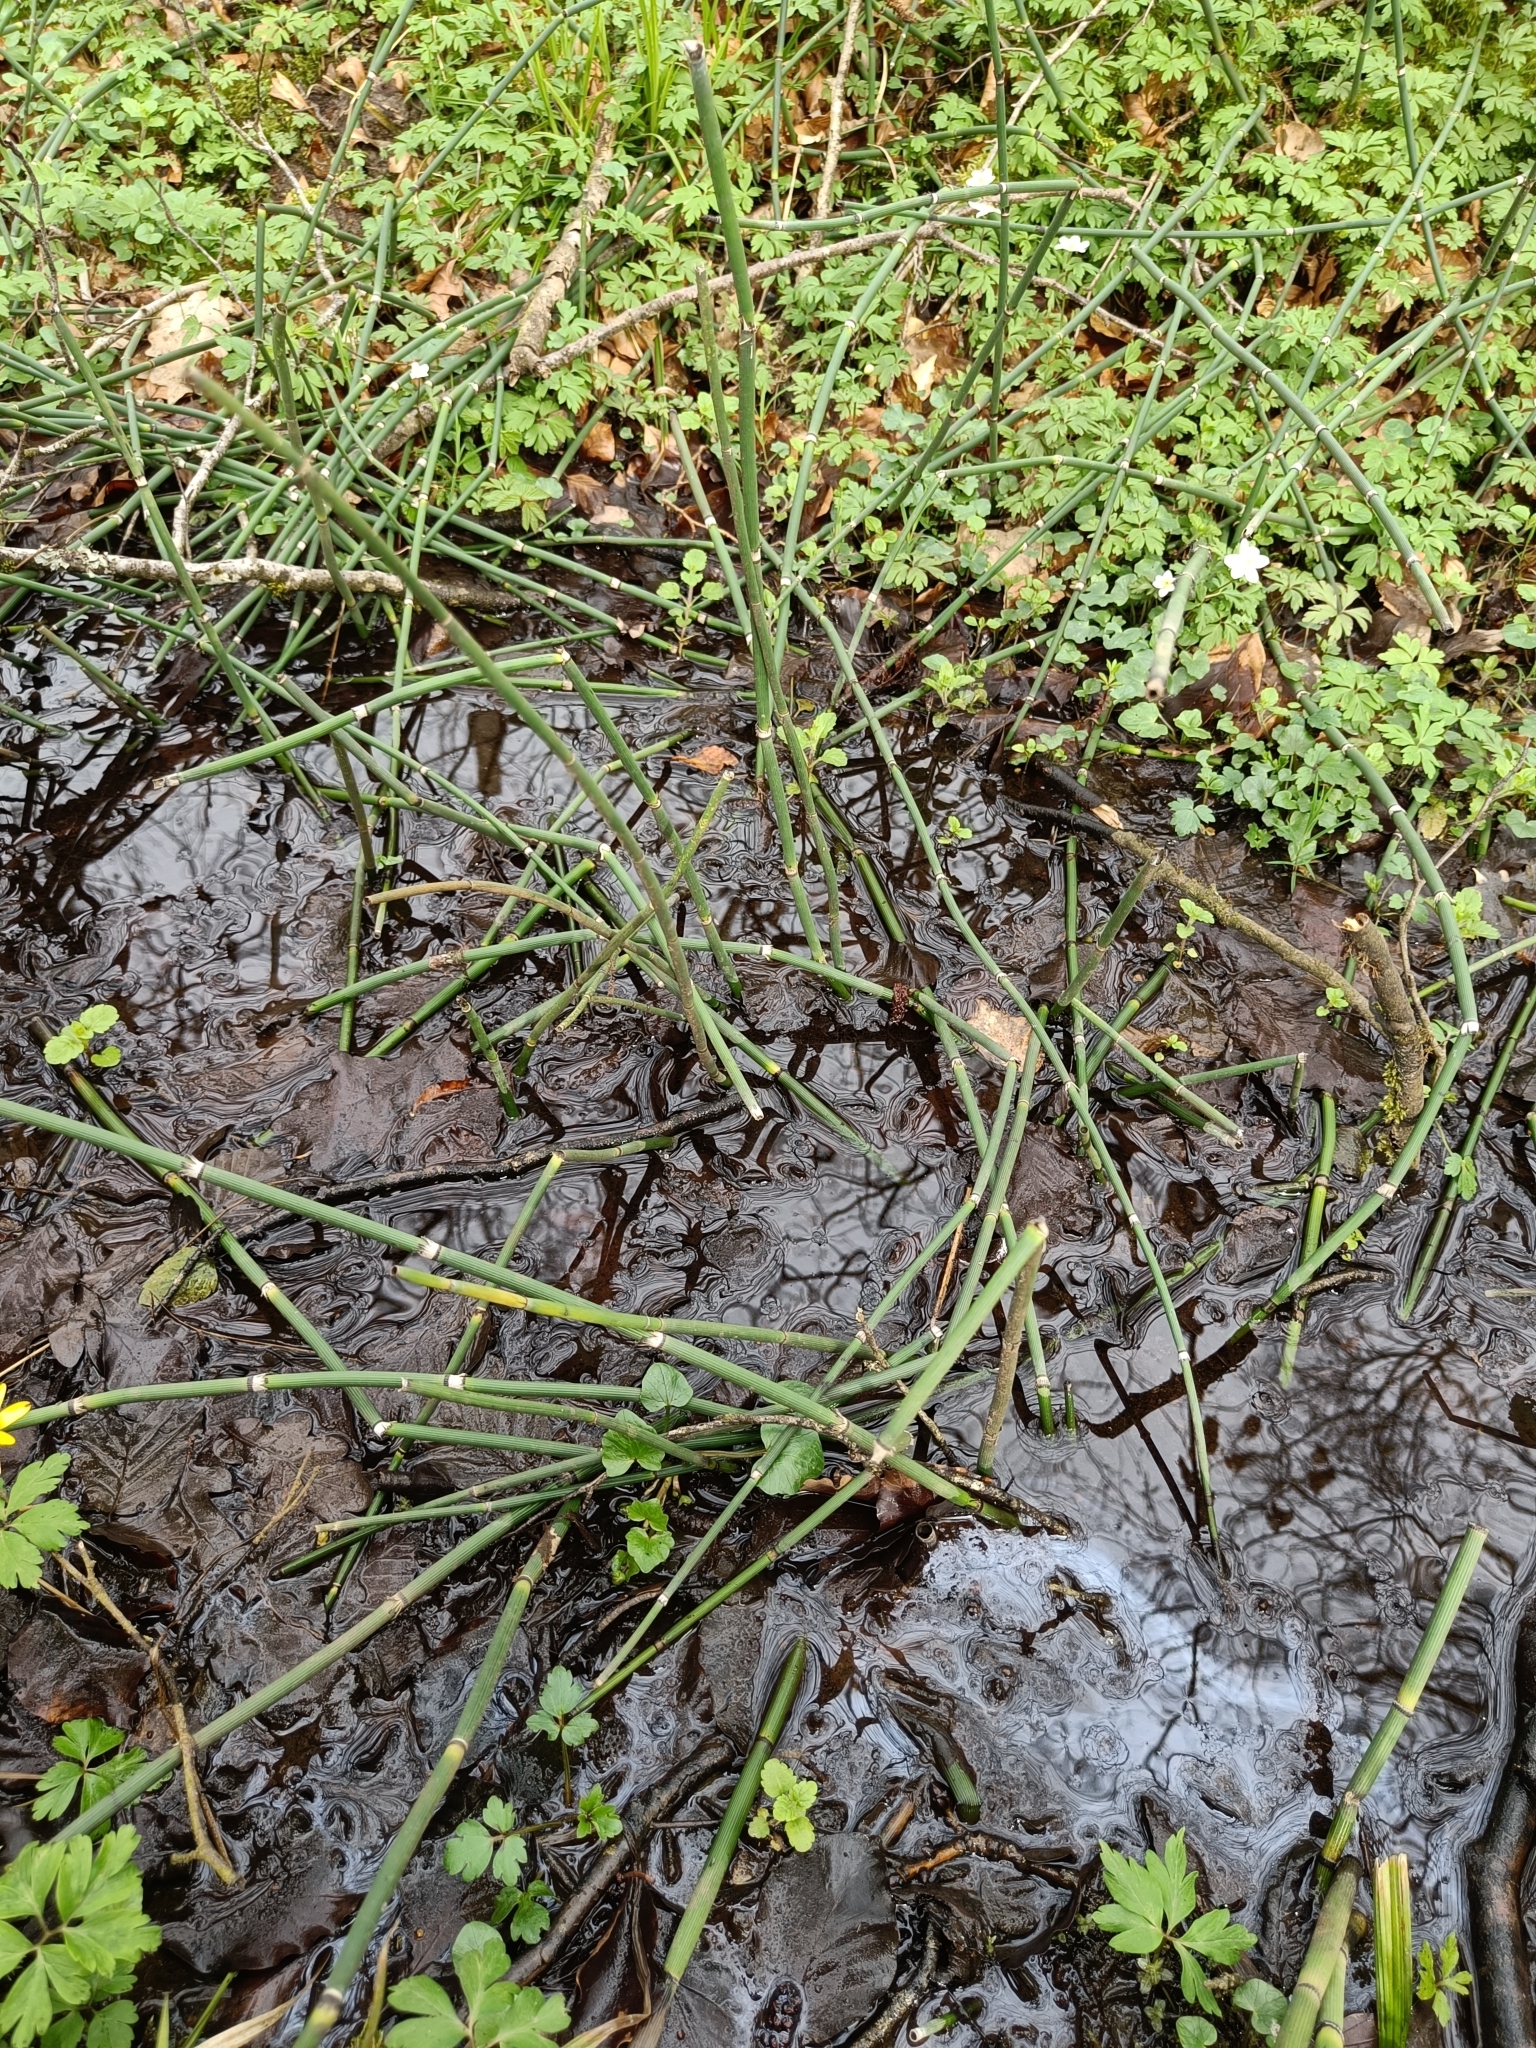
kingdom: Plantae
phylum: Tracheophyta
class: Polypodiopsida
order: Equisetales
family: Equisetaceae
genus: Equisetum
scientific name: Equisetum hyemale
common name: Rough horsetail
